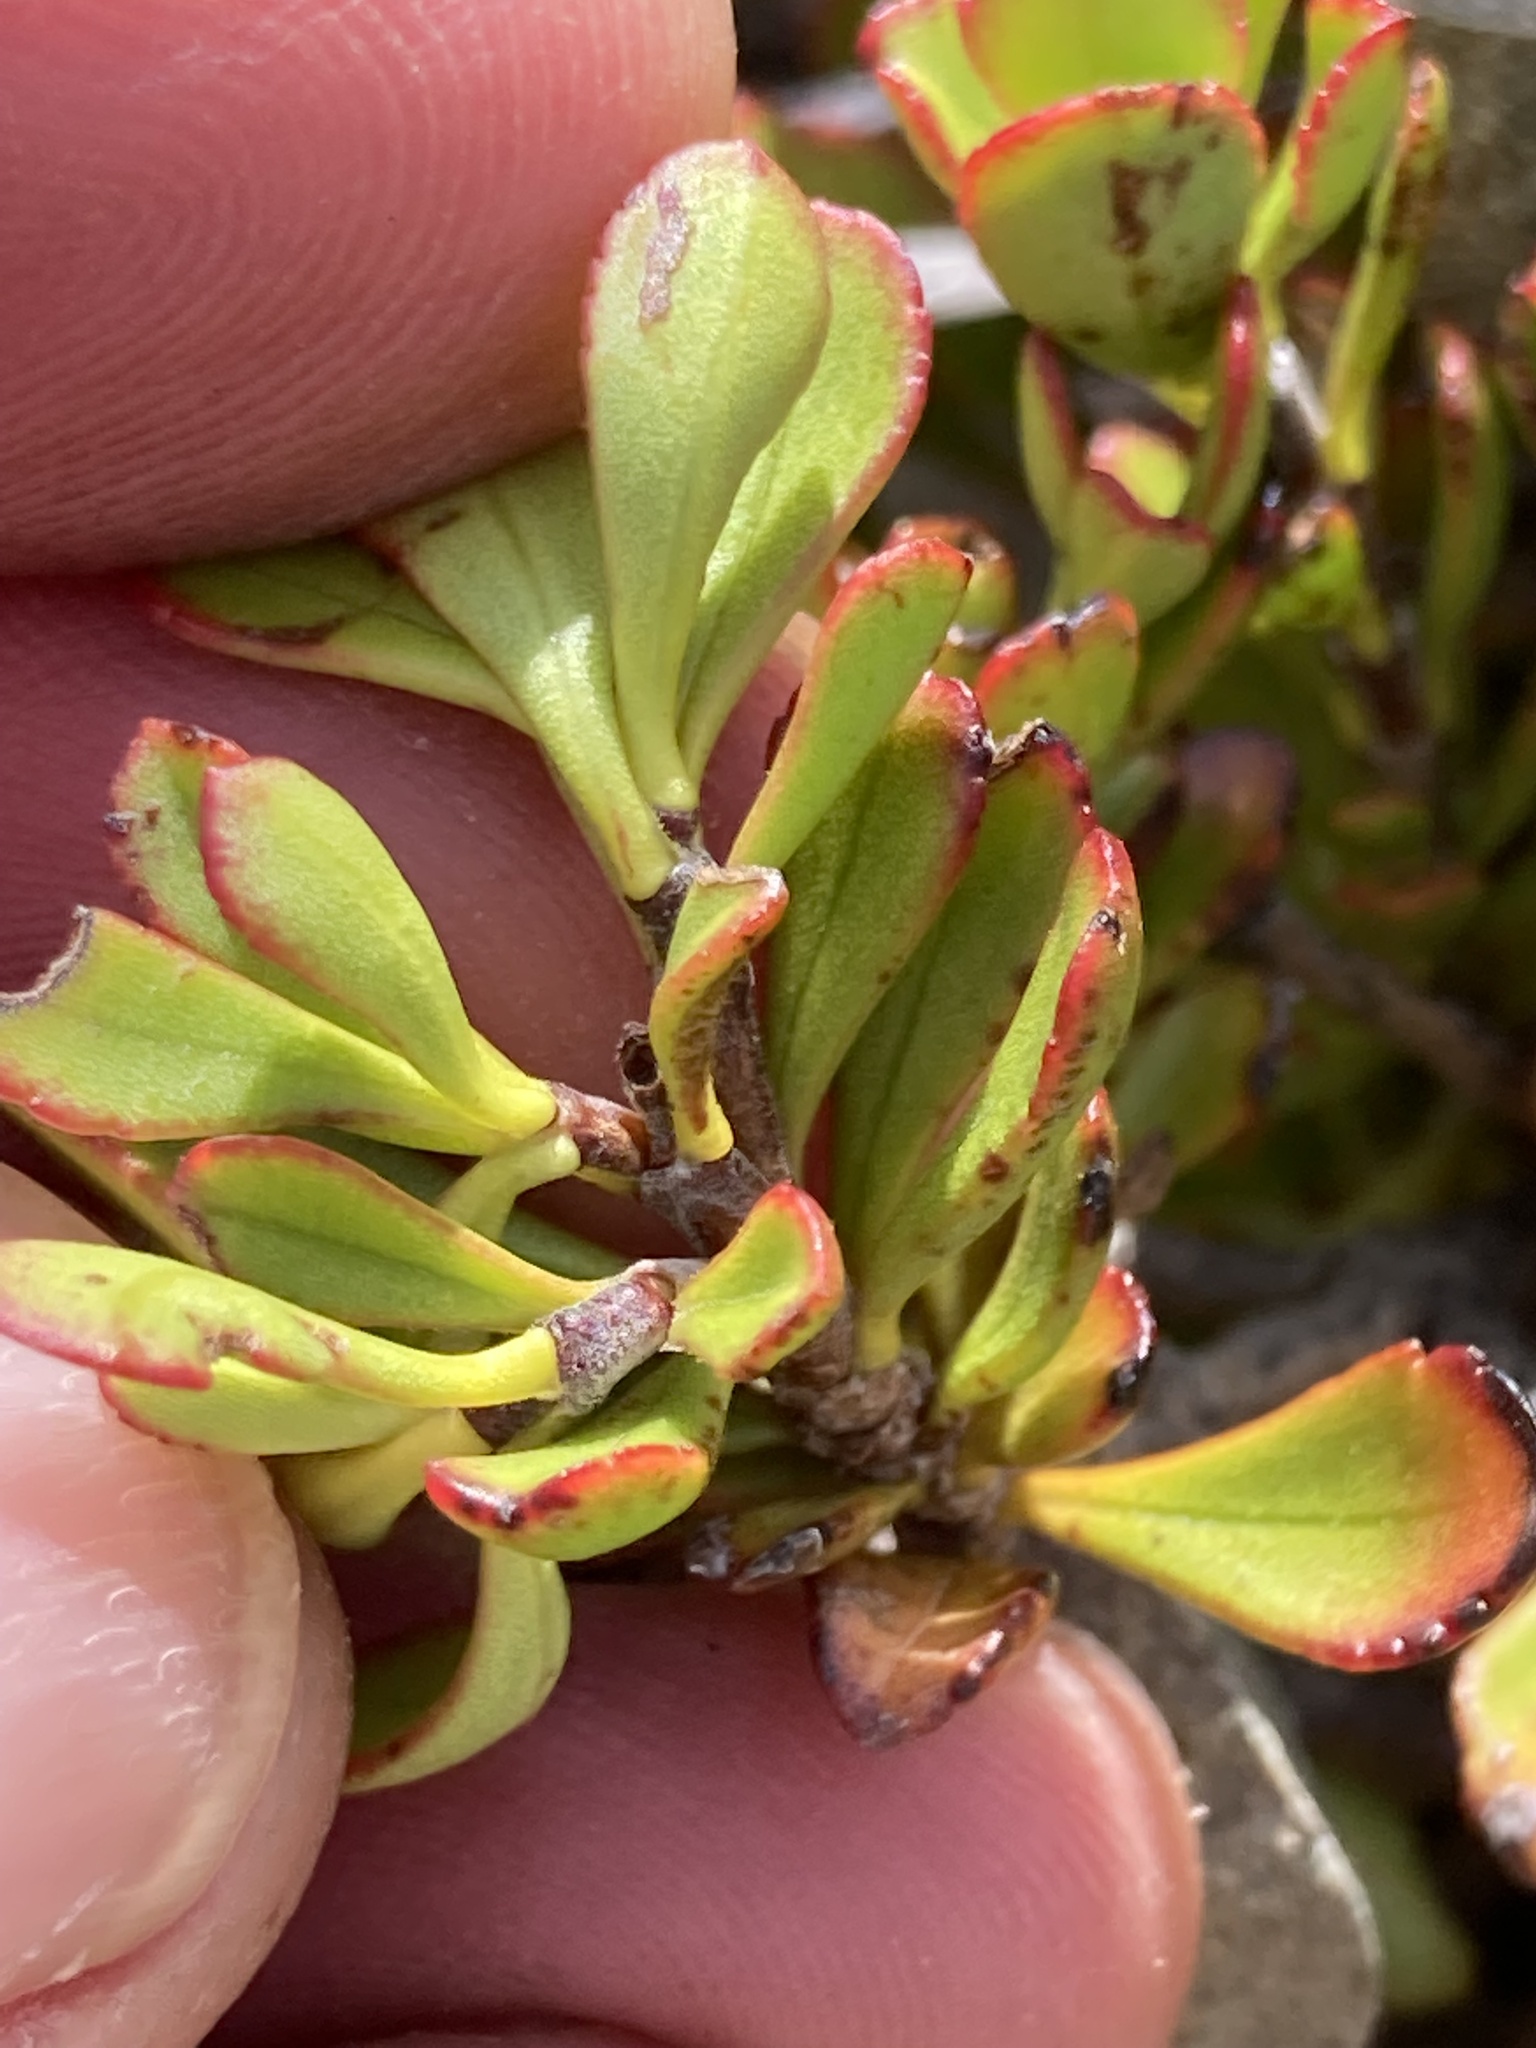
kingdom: Plantae
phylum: Tracheophyta
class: Magnoliopsida
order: Lamiales
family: Plantaginaceae
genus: Veronica
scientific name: Veronica raoulii
